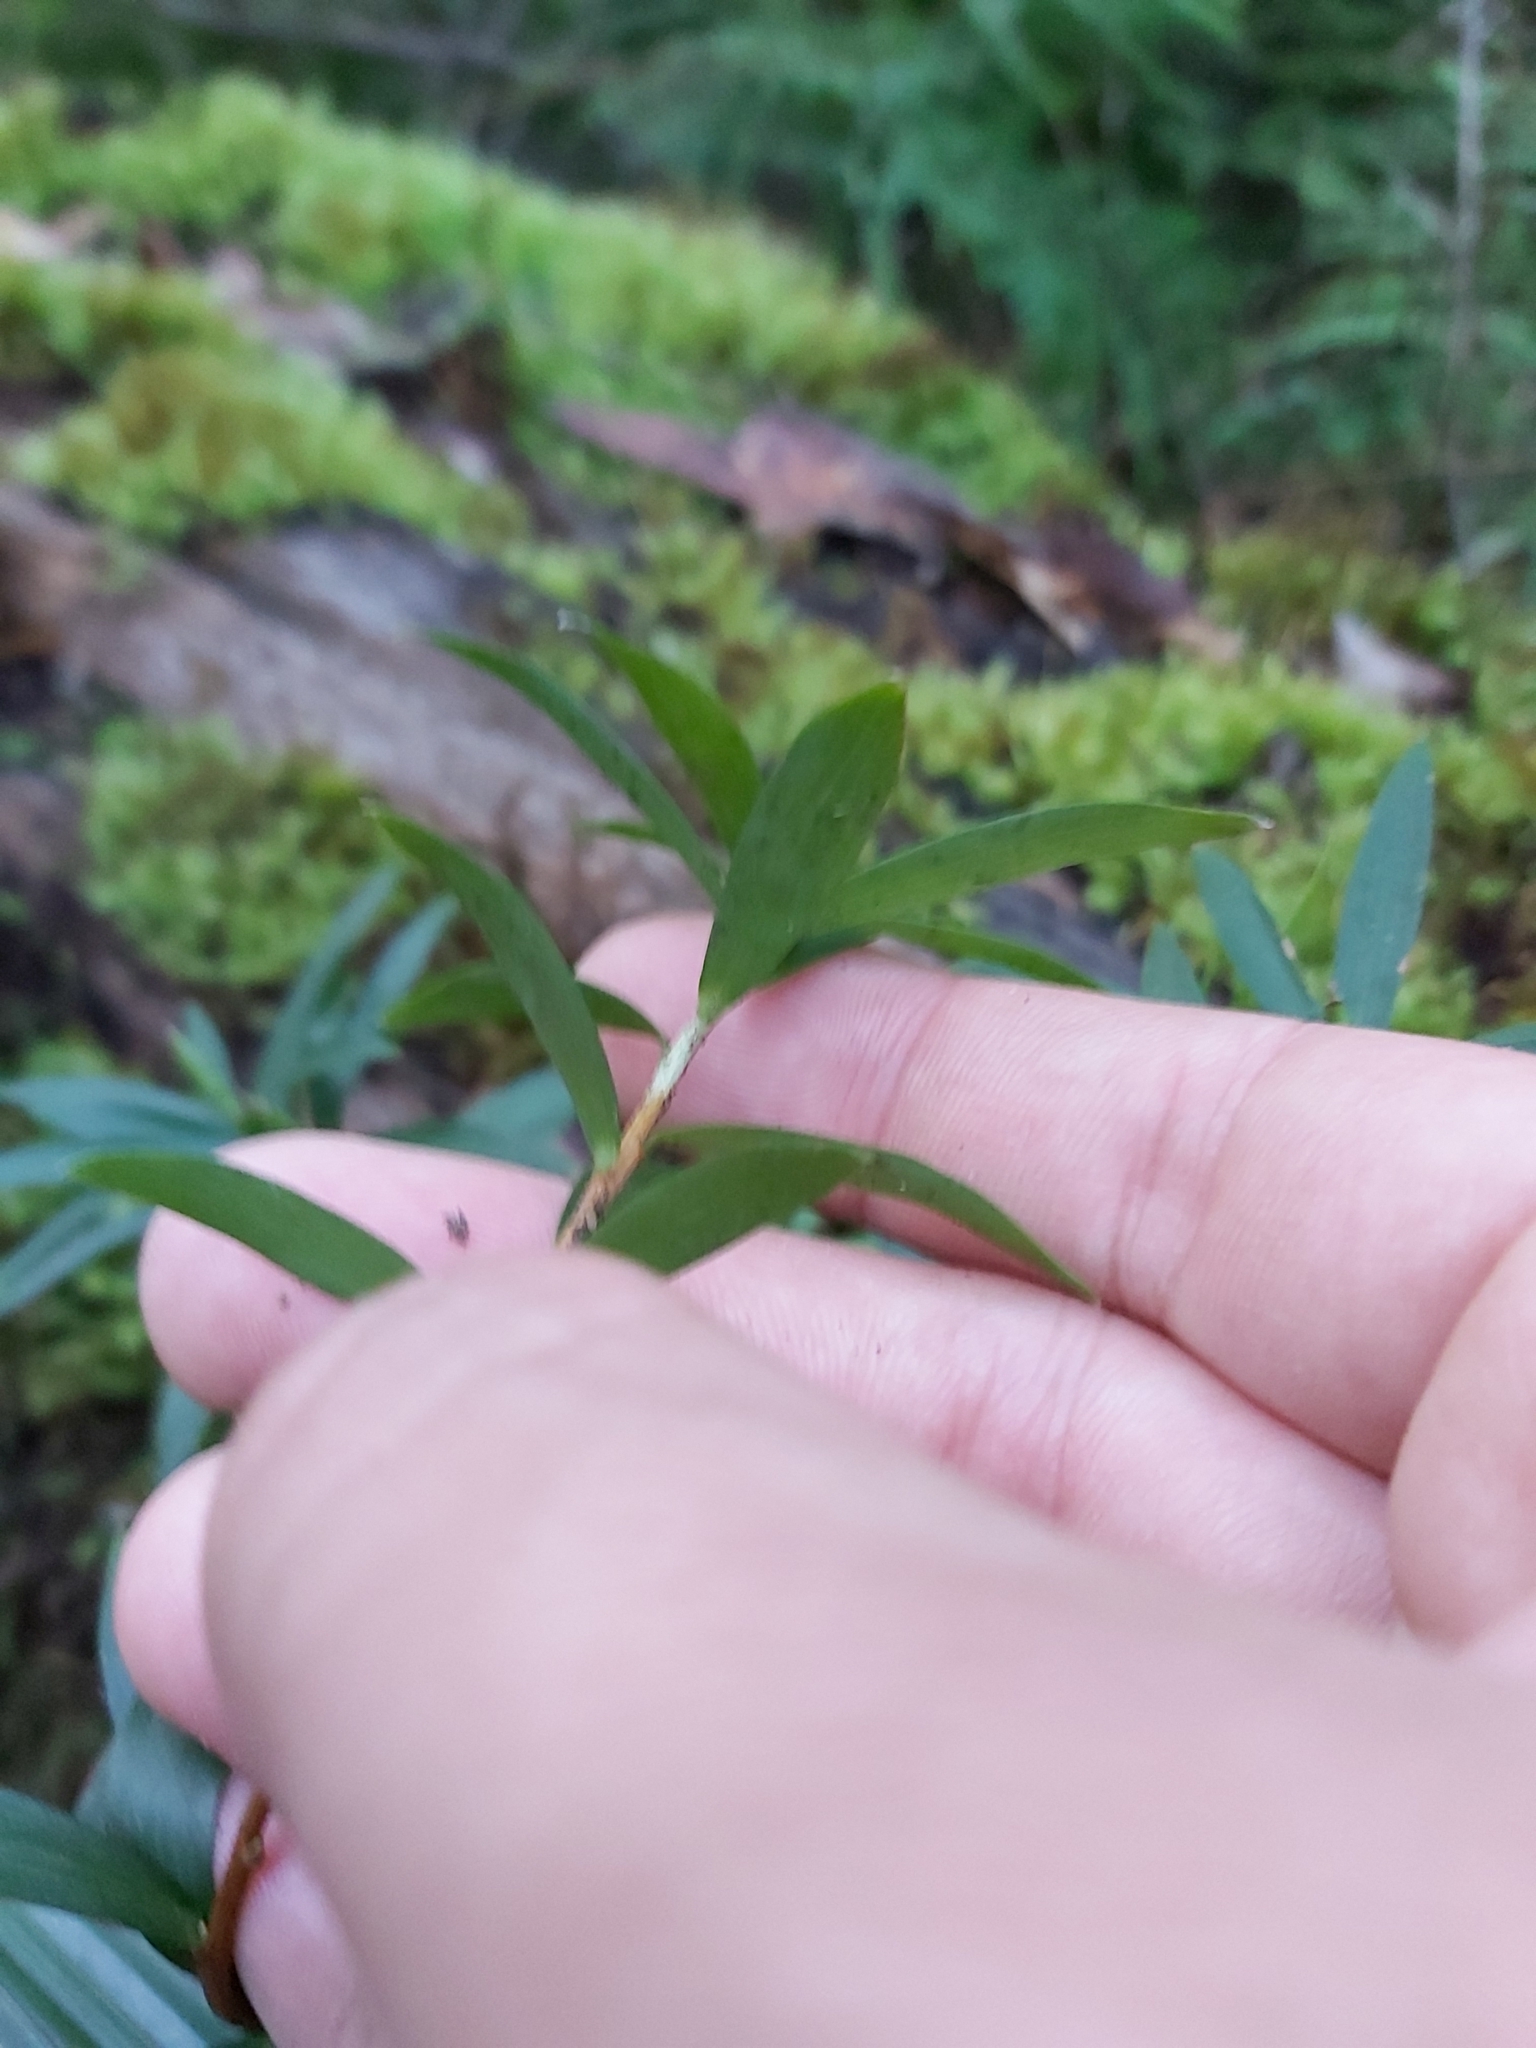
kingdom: Plantae
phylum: Tracheophyta
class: Magnoliopsida
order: Ericales
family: Ericaceae
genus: Leucopogon
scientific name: Leucopogon lanceolatus
